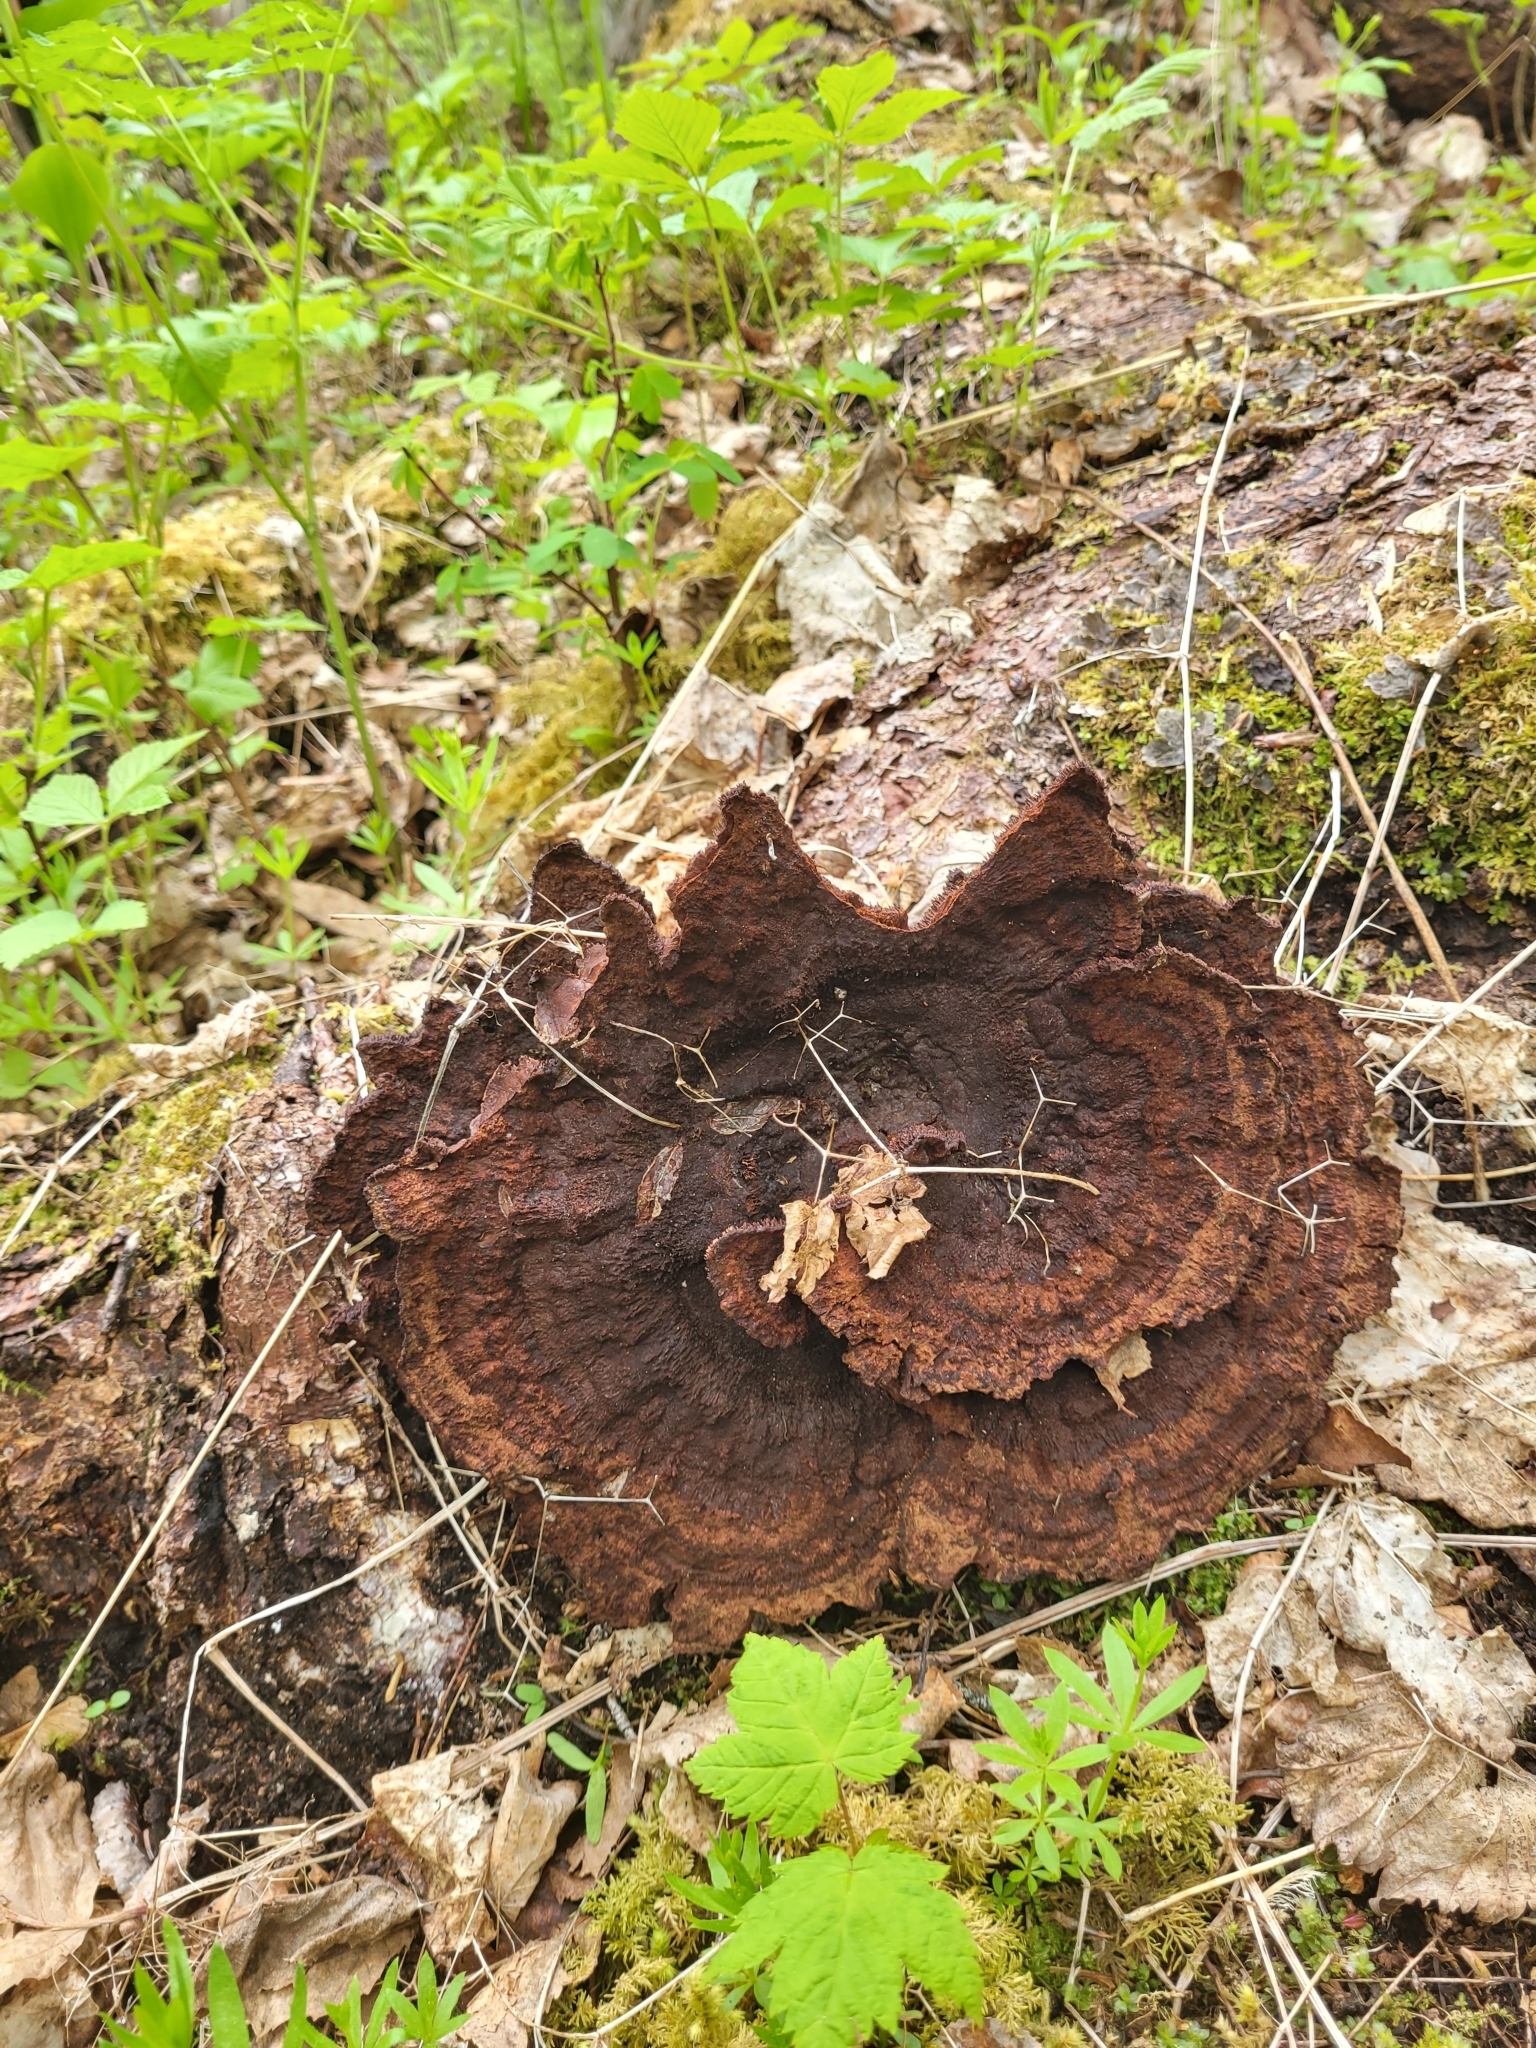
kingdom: Fungi
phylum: Basidiomycota
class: Agaricomycetes
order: Polyporales
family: Laetiporaceae
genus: Phaeolus
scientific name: Phaeolus schweinitzii
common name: Dyer's mazegill
